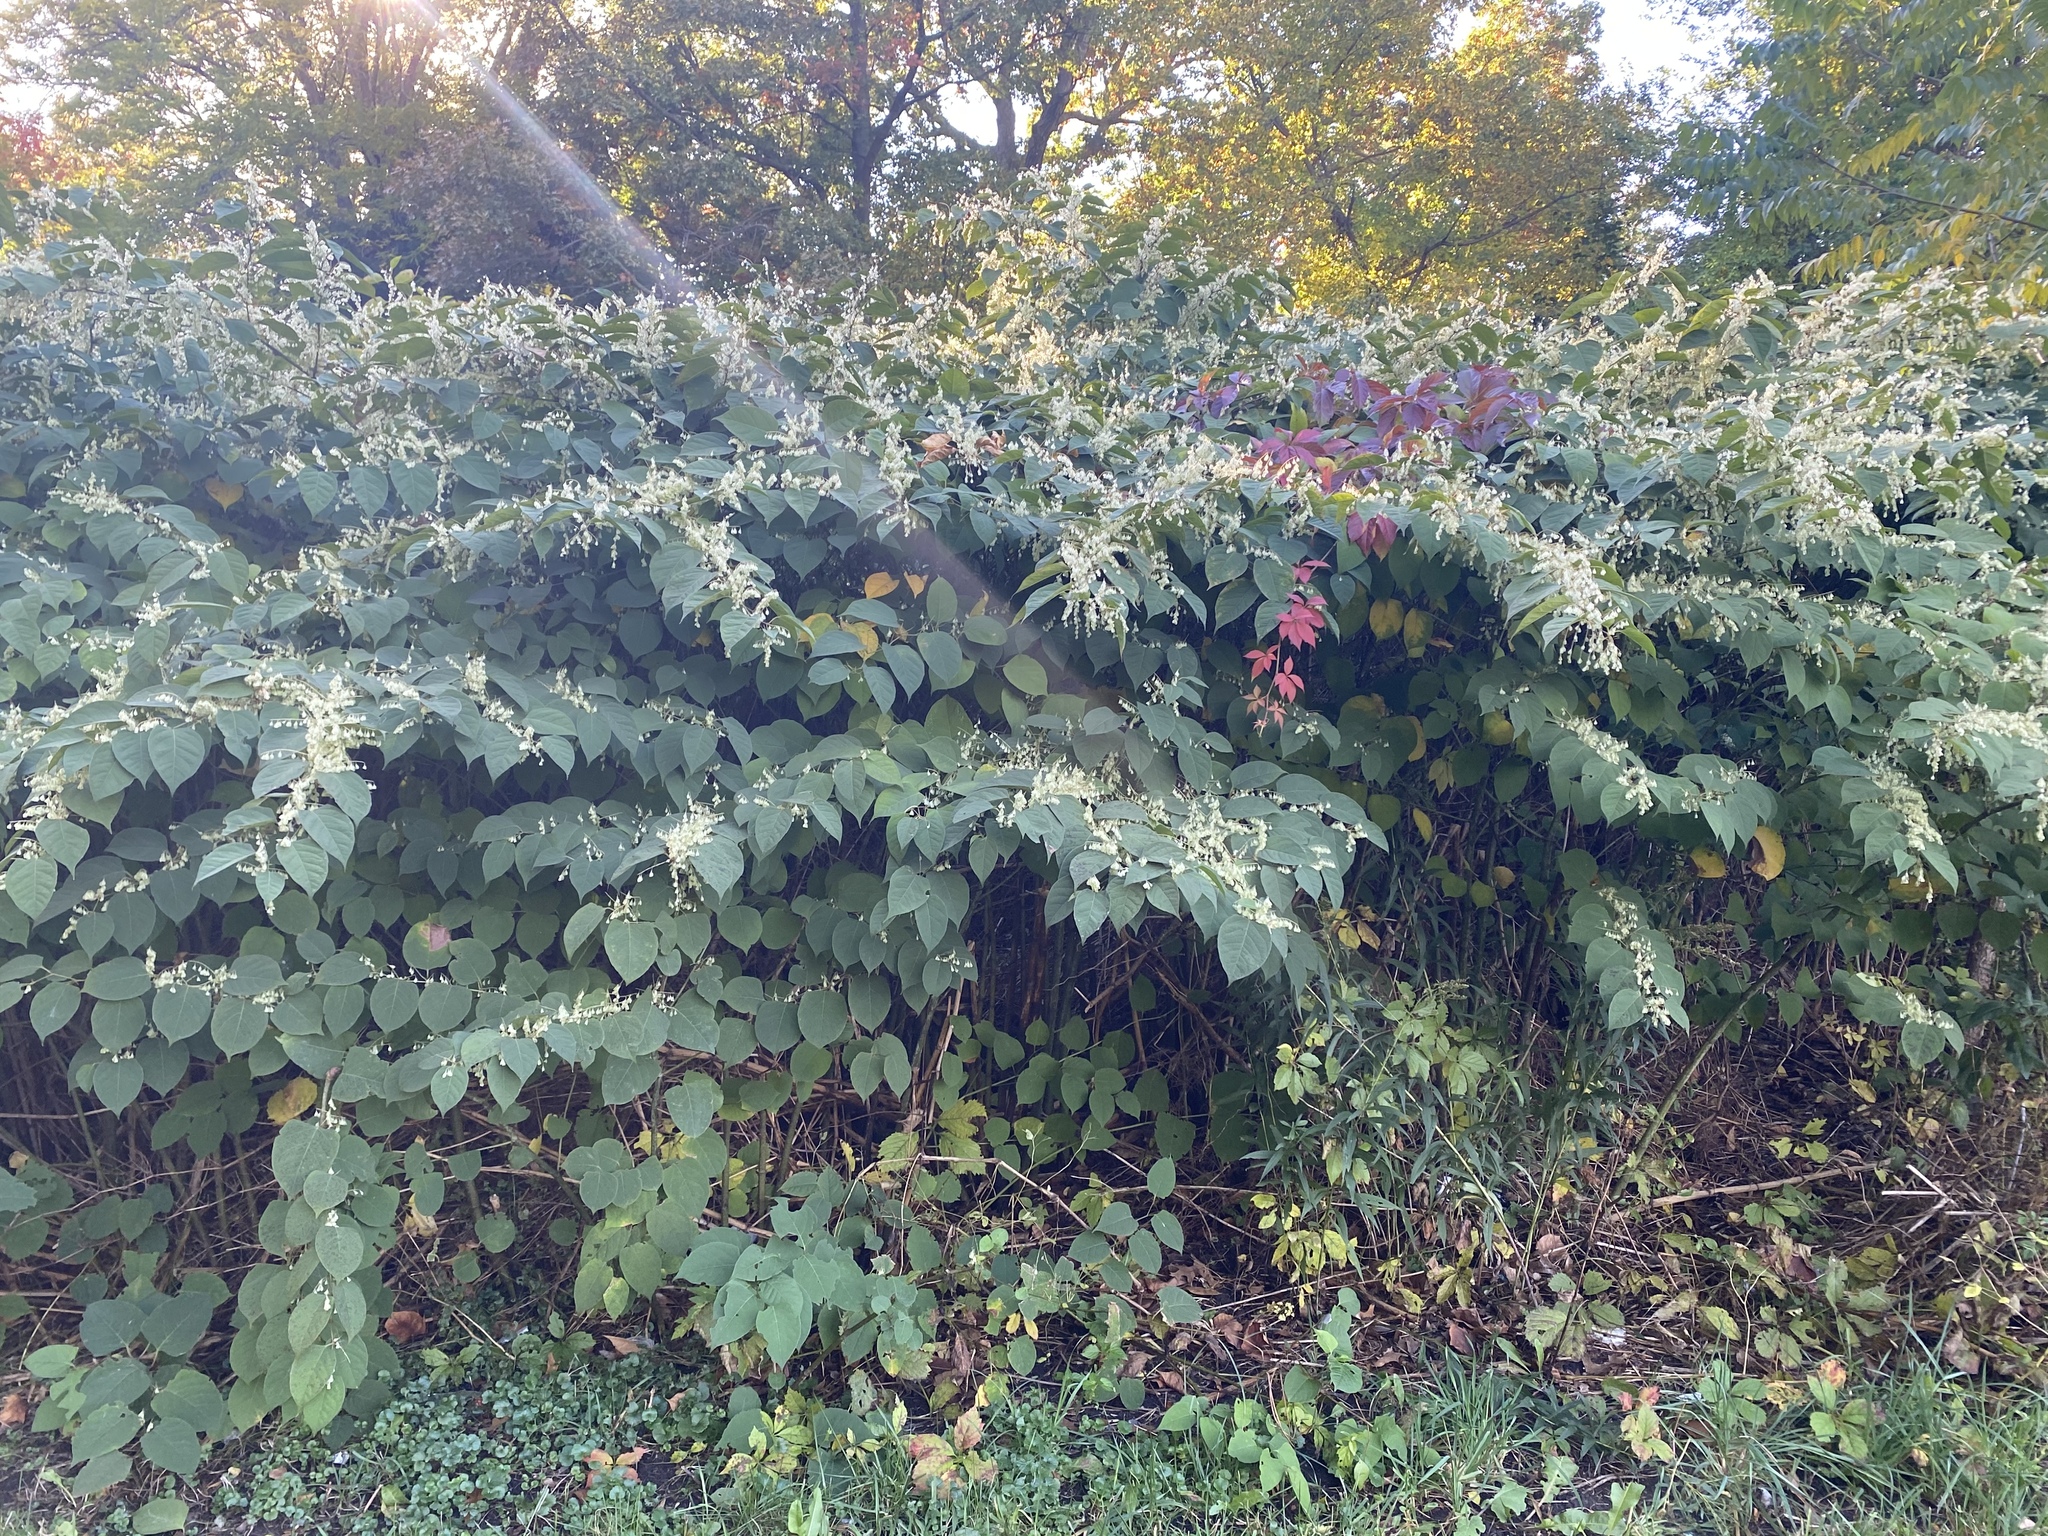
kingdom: Plantae
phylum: Tracheophyta
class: Magnoliopsida
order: Caryophyllales
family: Polygonaceae
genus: Reynoutria
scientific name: Reynoutria japonica
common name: Japanese knotweed
